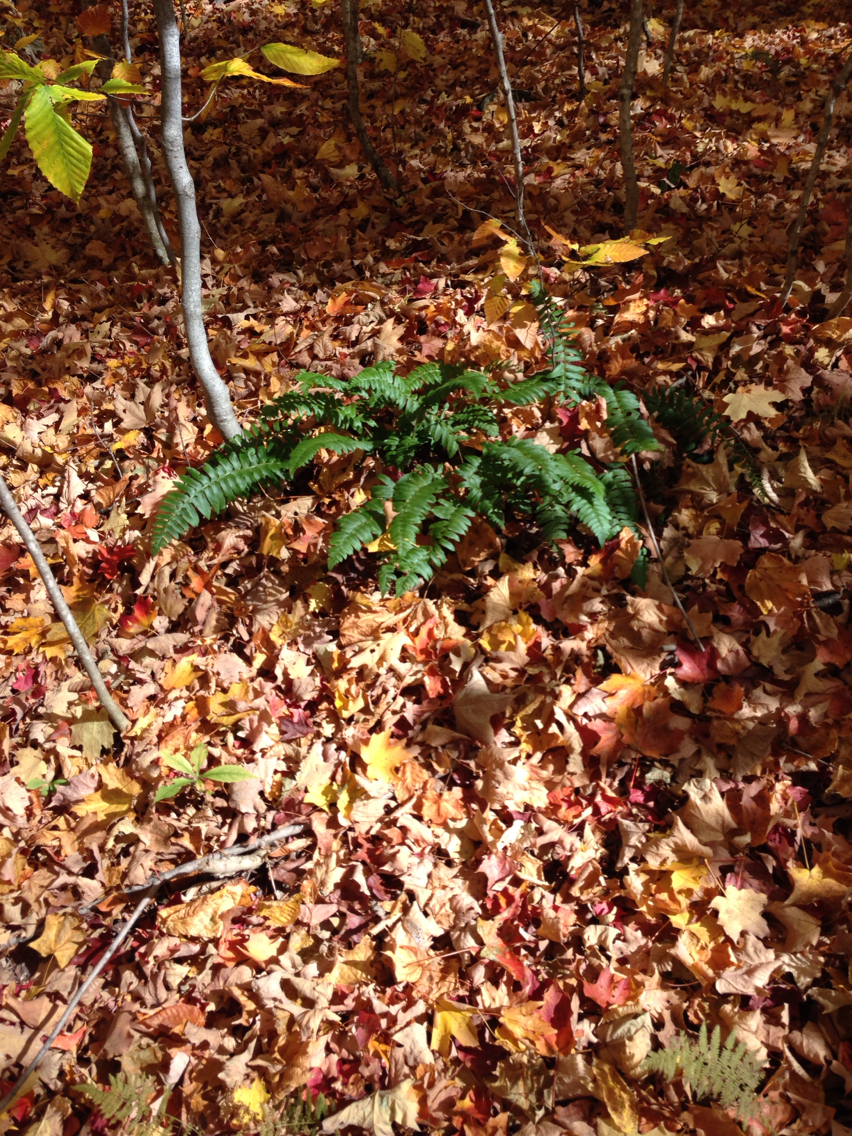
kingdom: Plantae
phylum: Tracheophyta
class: Polypodiopsida
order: Polypodiales
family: Dryopteridaceae
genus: Polystichum
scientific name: Polystichum acrostichoides
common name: Christmas fern
